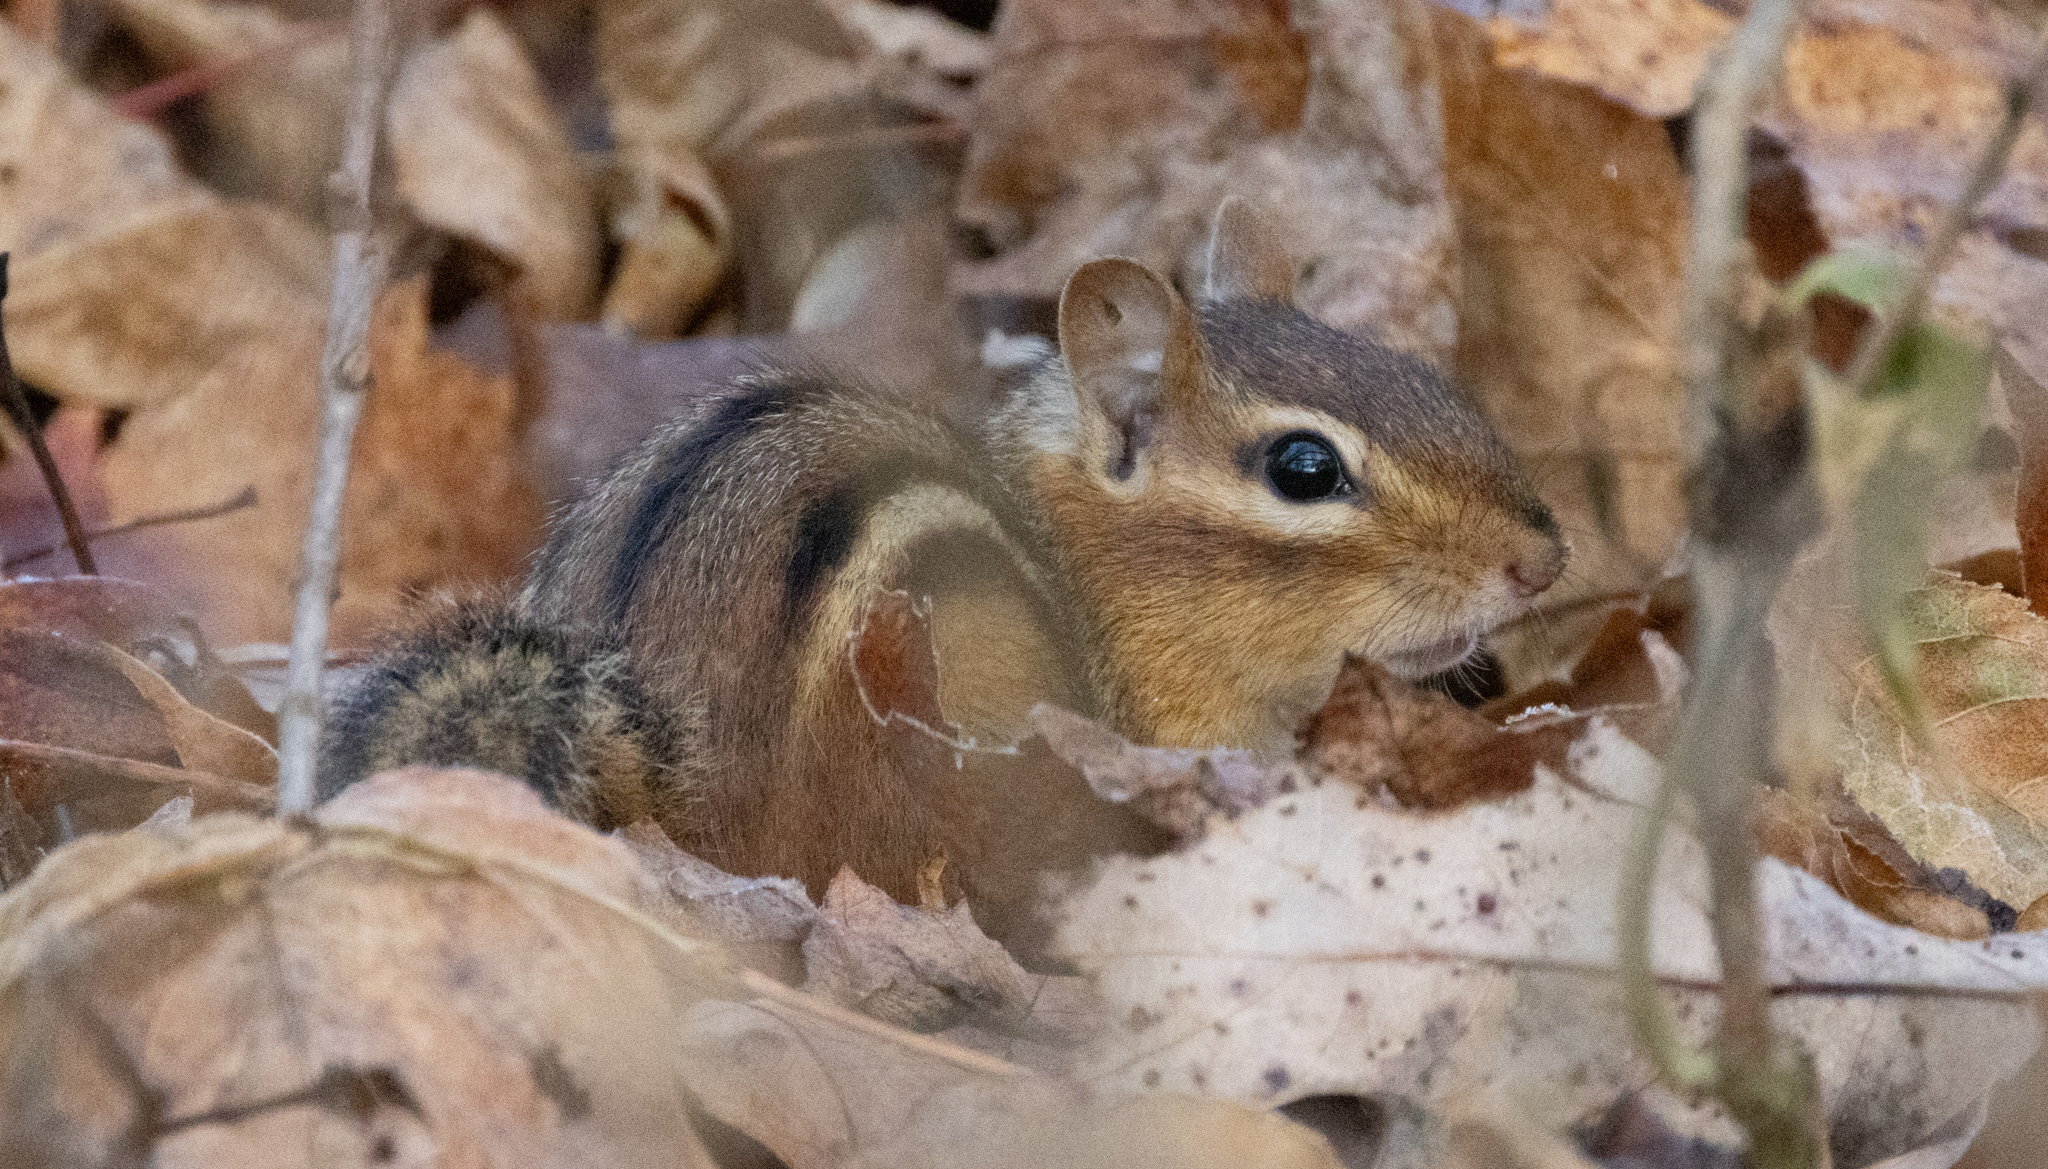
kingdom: Animalia
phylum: Chordata
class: Mammalia
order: Rodentia
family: Sciuridae
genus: Tamias
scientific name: Tamias striatus
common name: Eastern chipmunk
